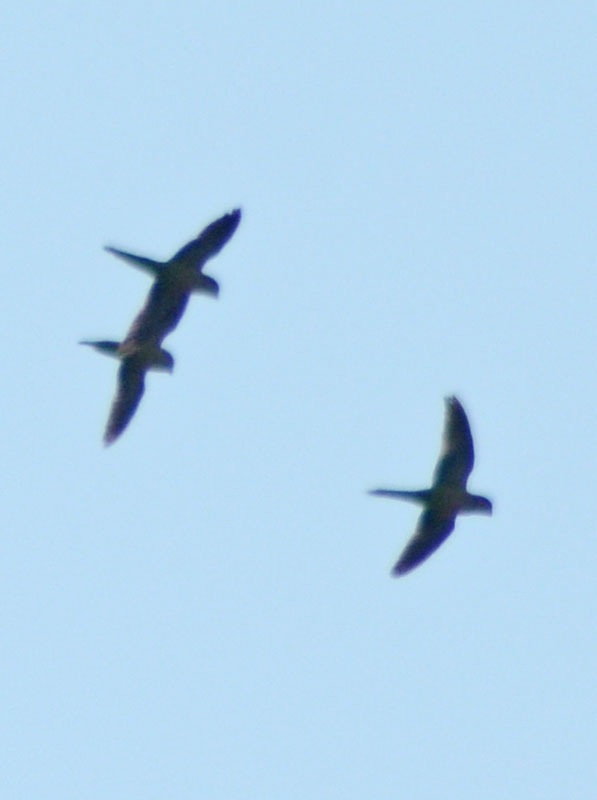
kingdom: Animalia
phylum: Chordata
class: Aves
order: Psittaciformes
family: Psittacidae
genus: Myiopsitta
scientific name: Myiopsitta monachus
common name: Monk parakeet
